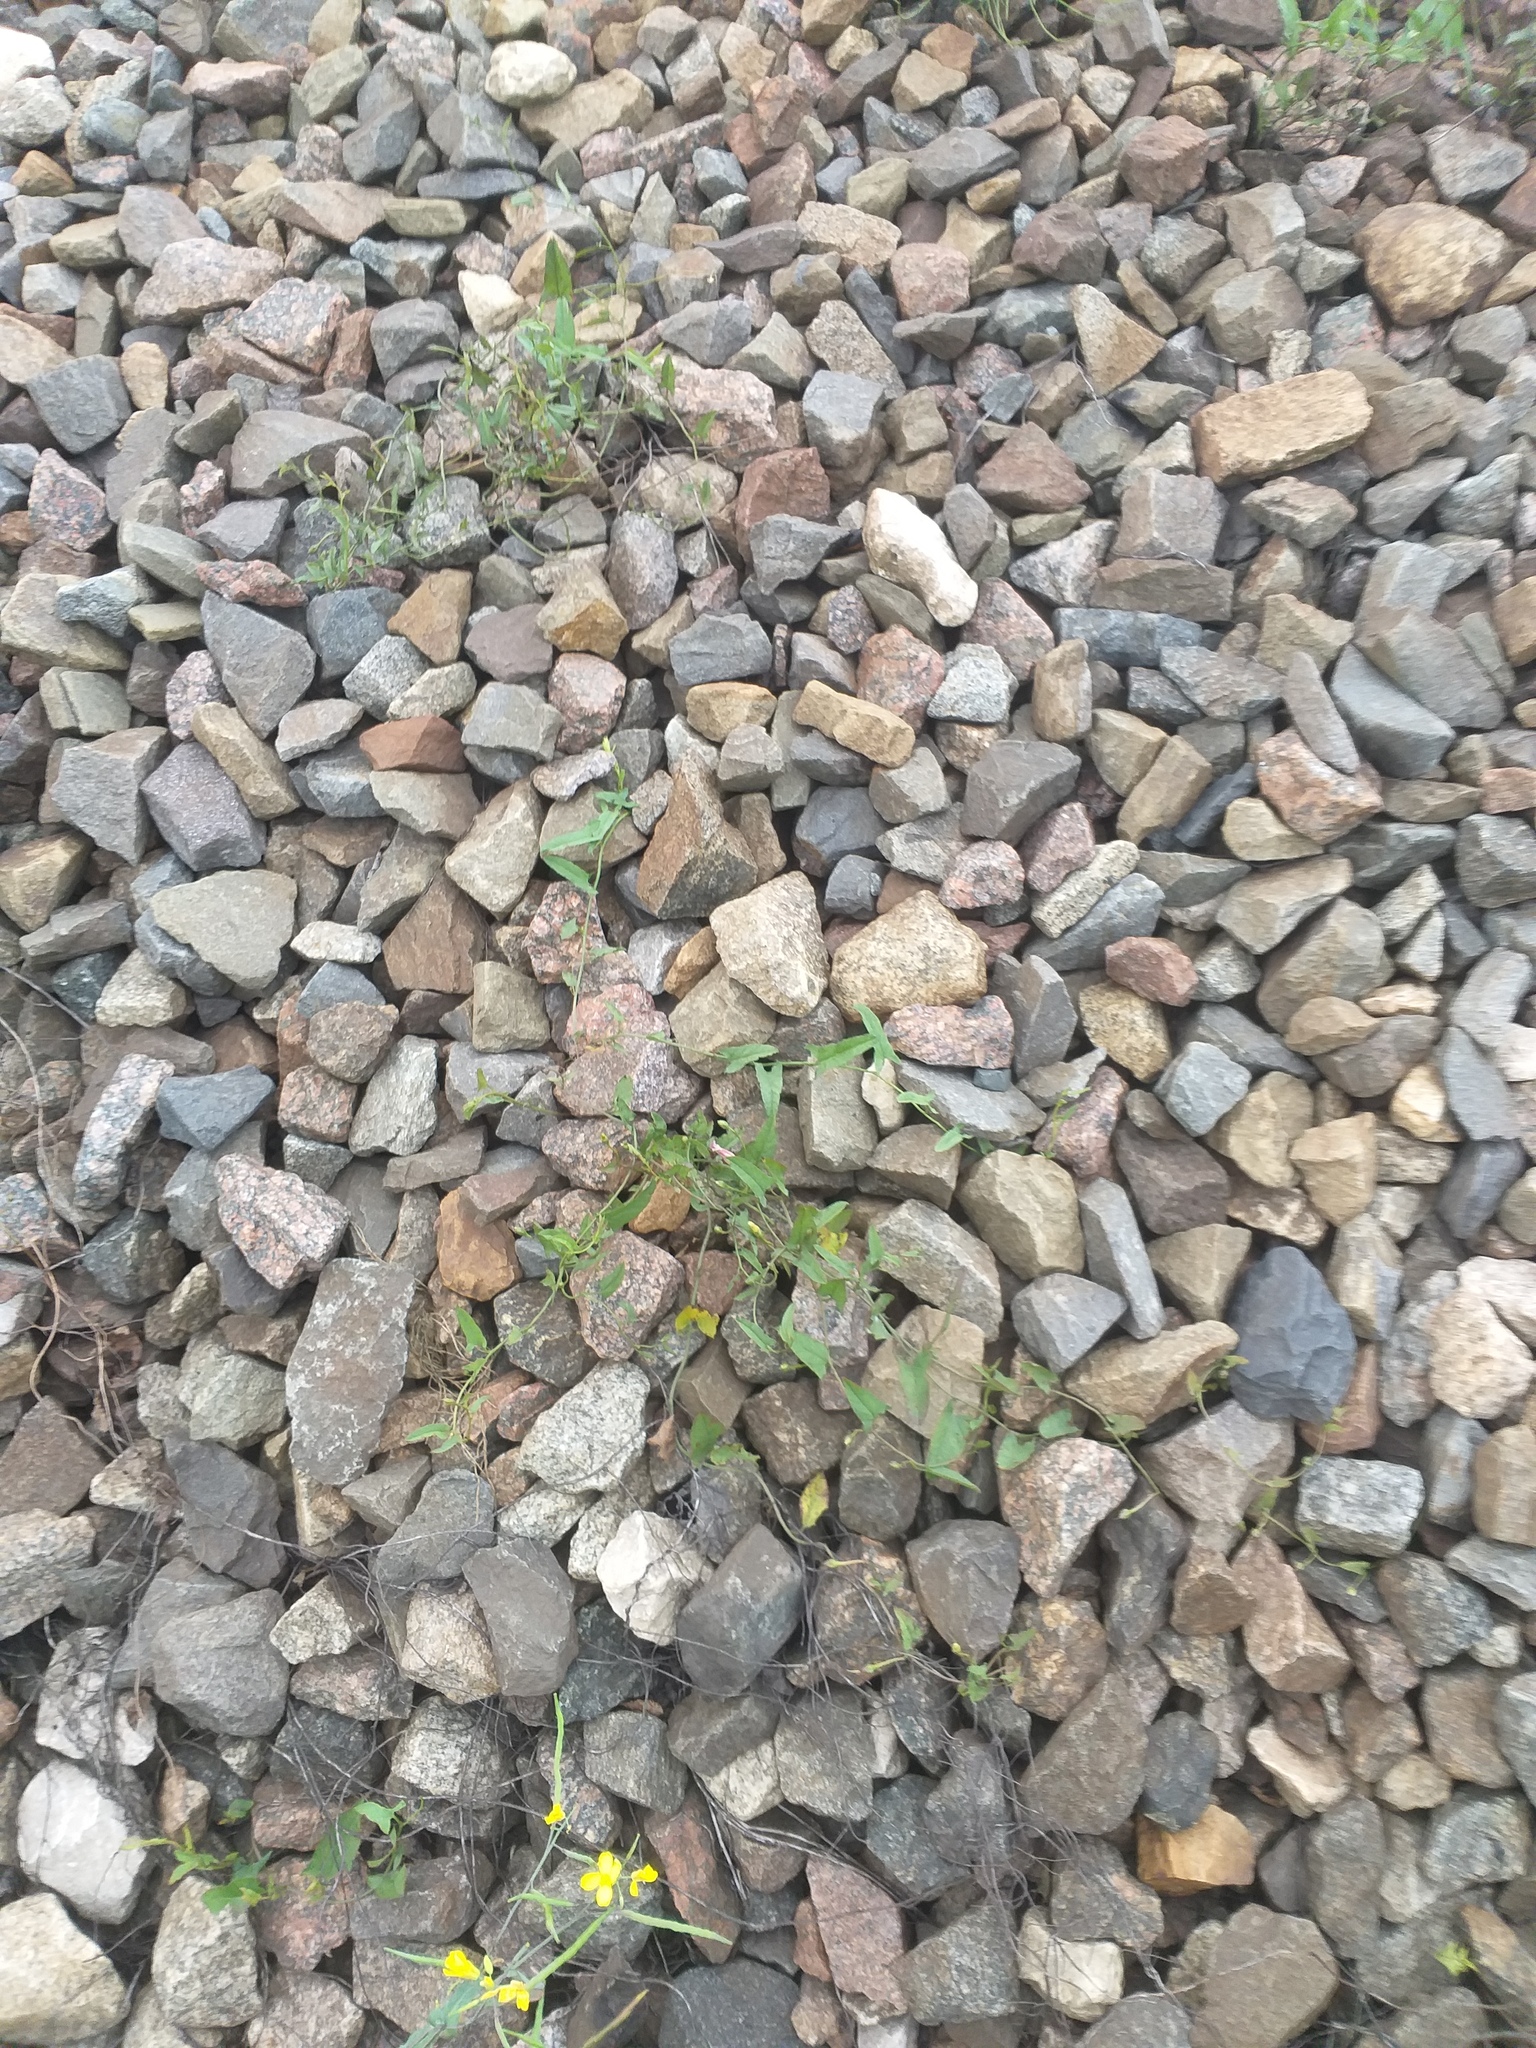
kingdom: Plantae
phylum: Tracheophyta
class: Magnoliopsida
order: Solanales
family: Convolvulaceae
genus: Convolvulus
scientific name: Convolvulus arvensis
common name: Field bindweed
